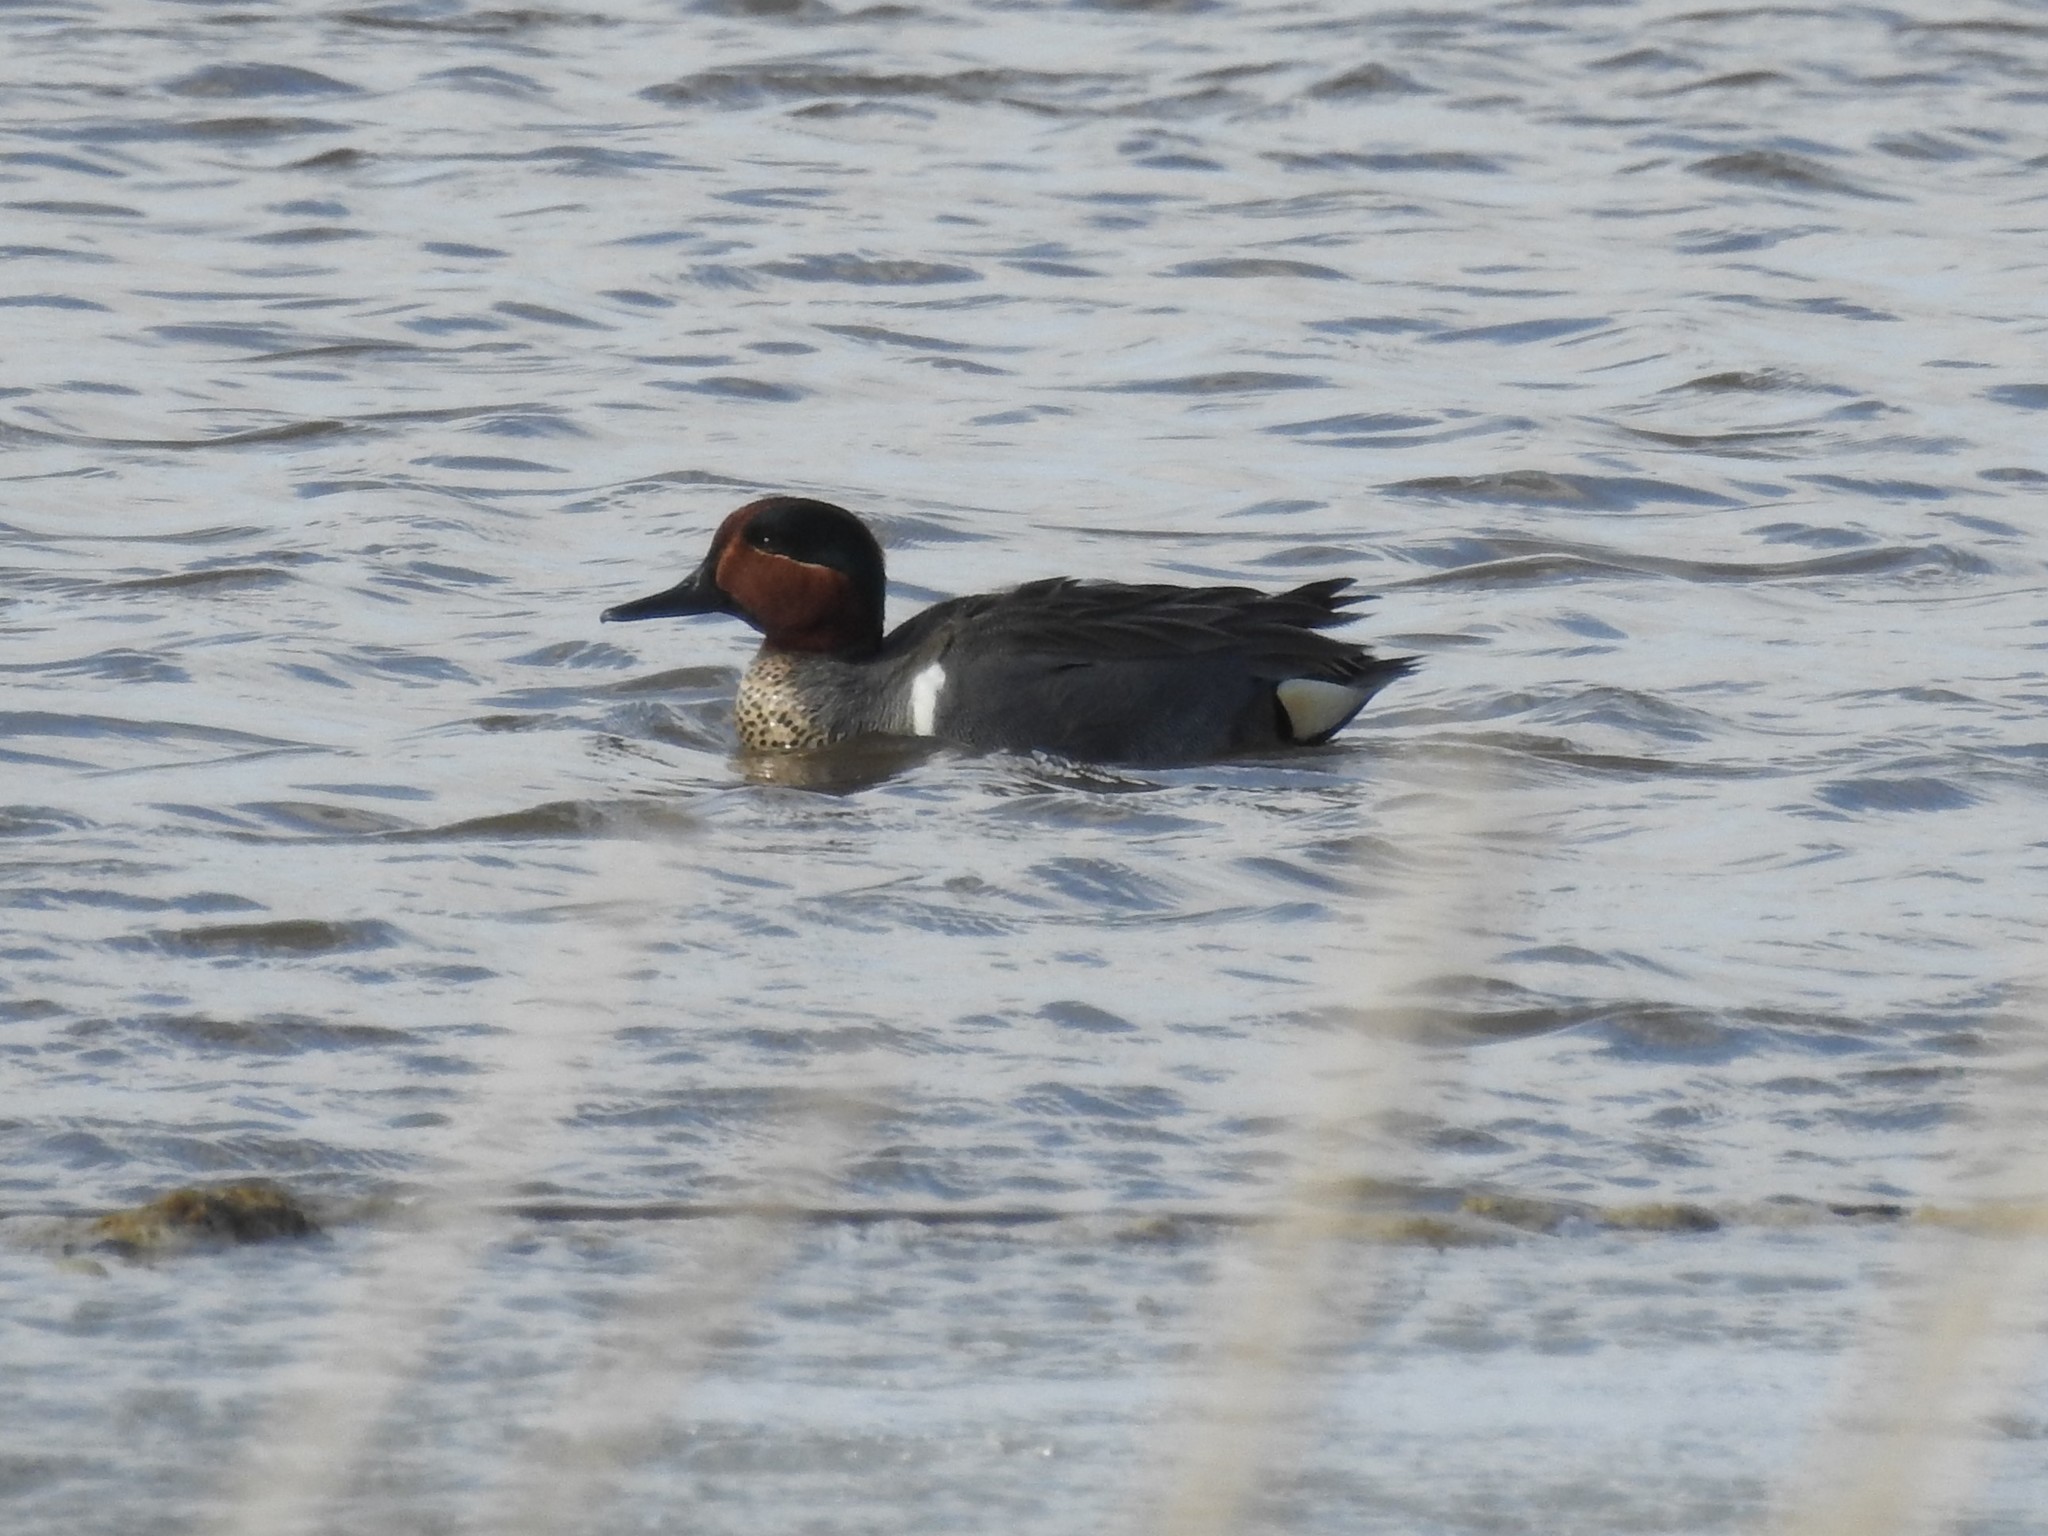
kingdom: Animalia
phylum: Chordata
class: Aves
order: Anseriformes
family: Anatidae
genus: Anas
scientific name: Anas crecca
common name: Eurasian teal
